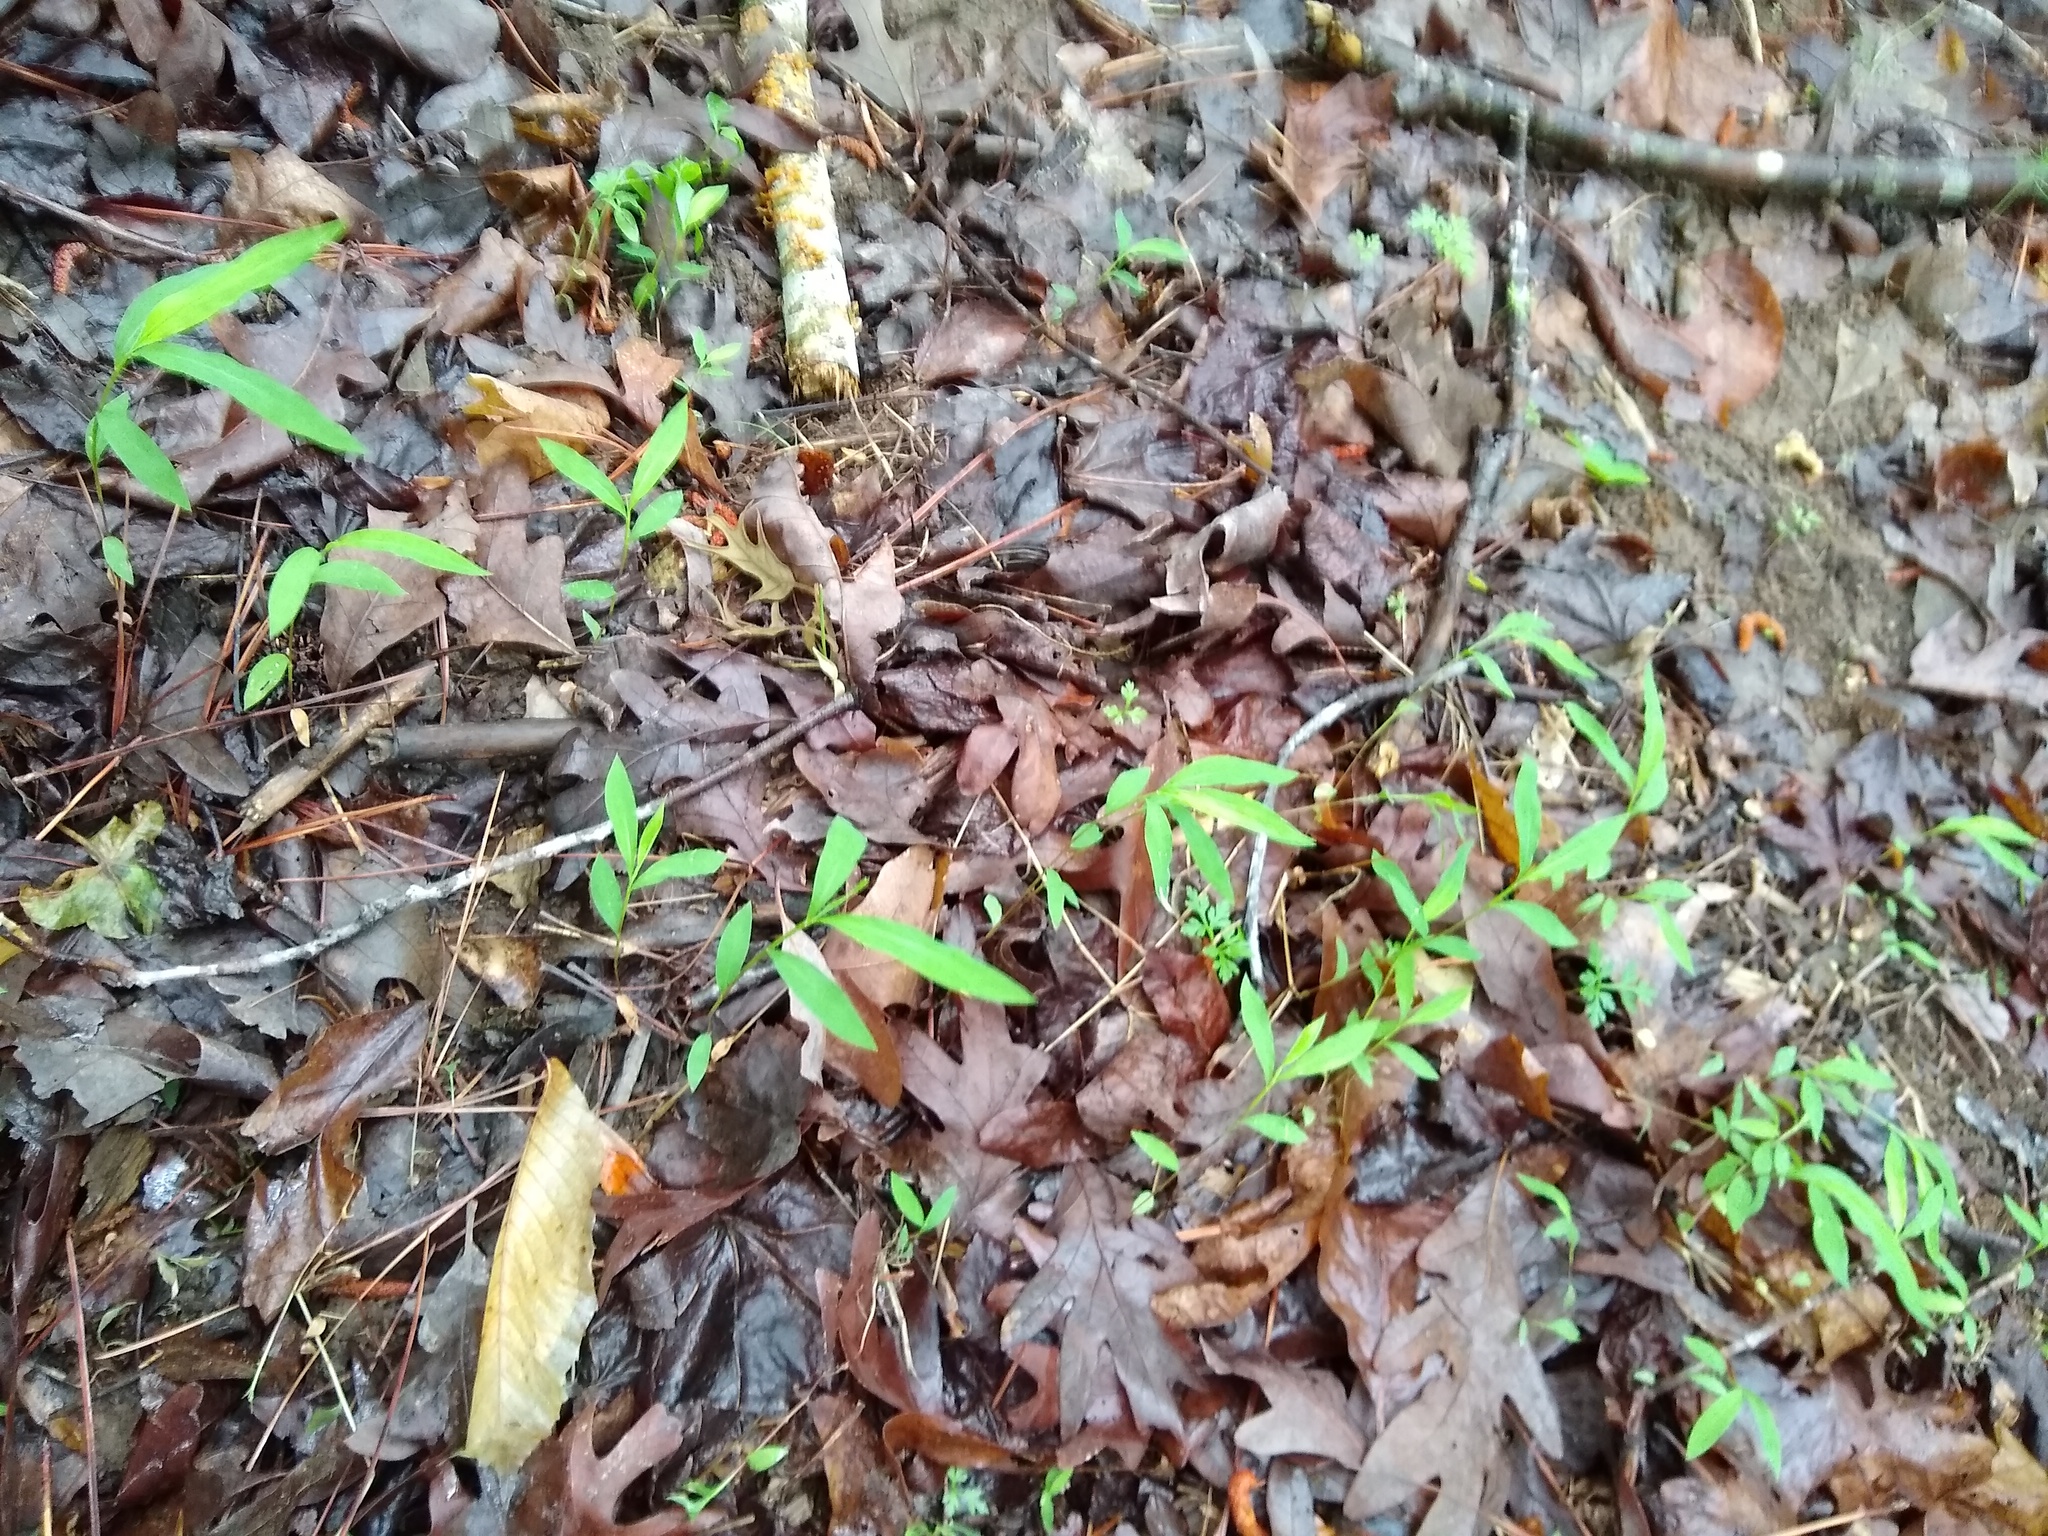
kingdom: Plantae
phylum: Tracheophyta
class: Liliopsida
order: Poales
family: Poaceae
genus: Microstegium
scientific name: Microstegium vimineum
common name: Japanese stiltgrass
